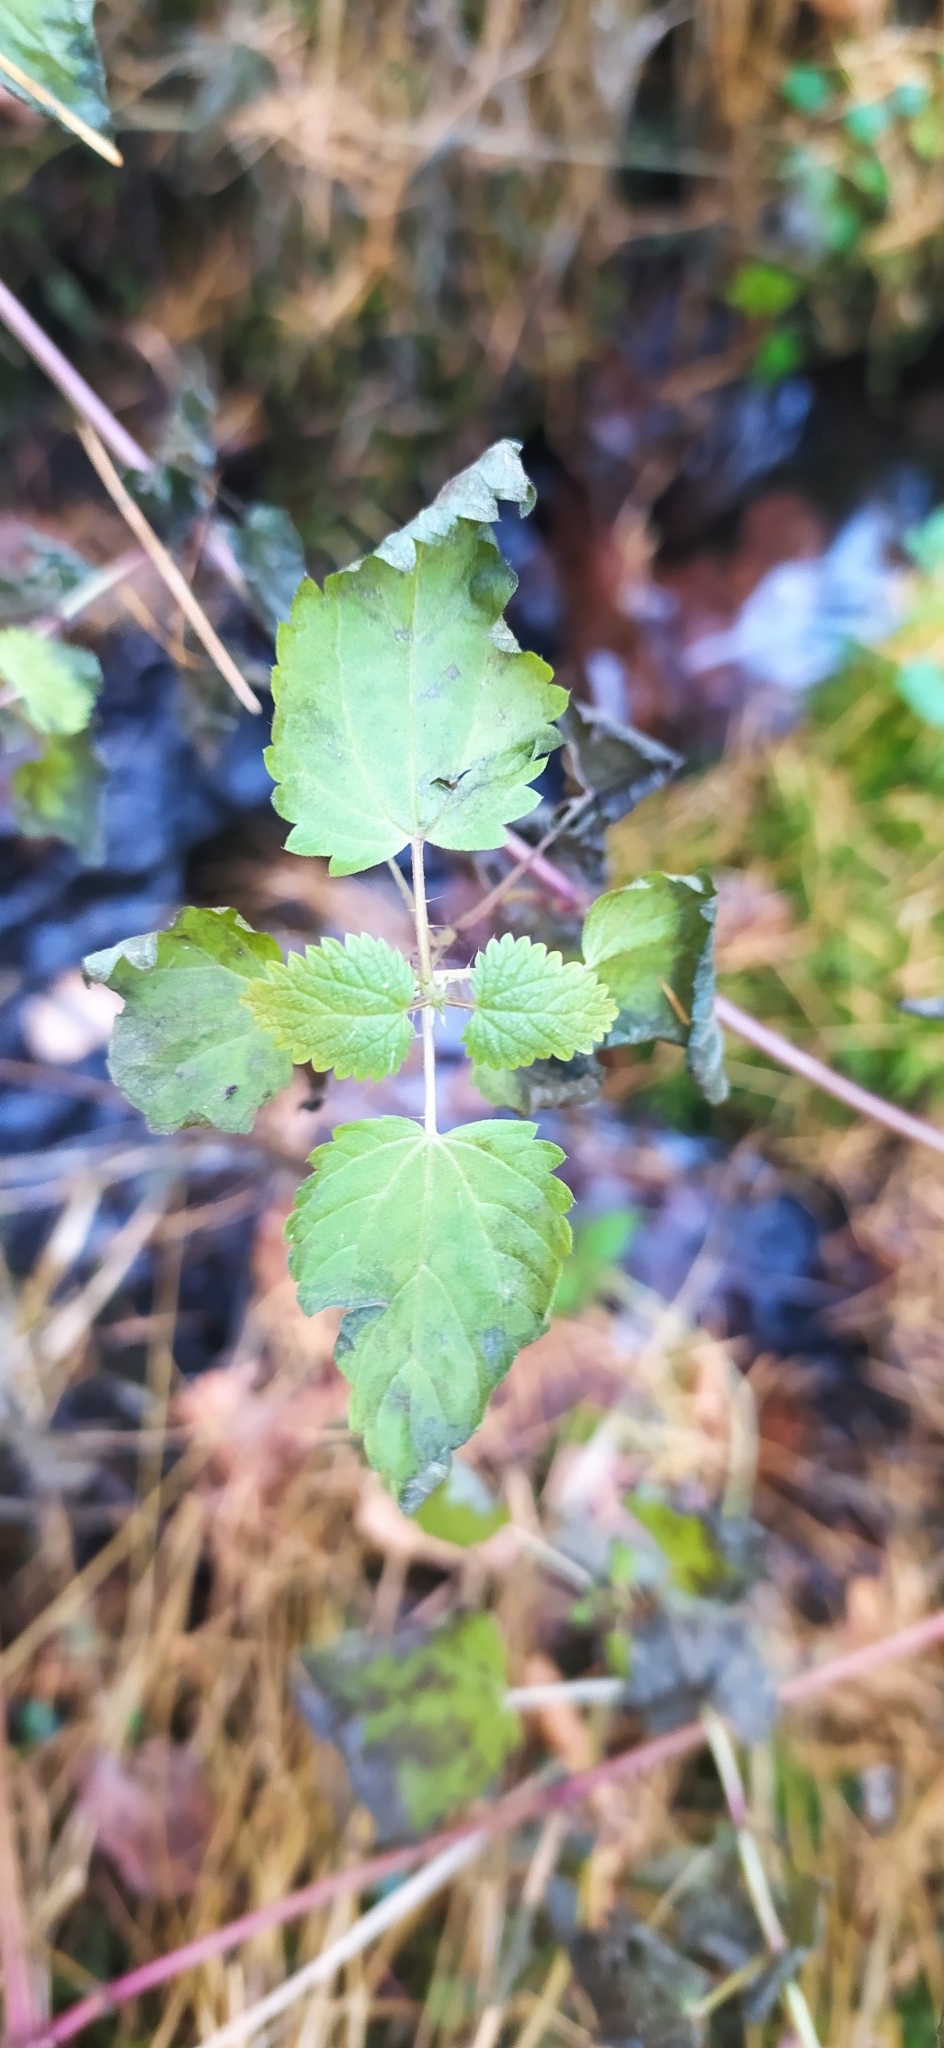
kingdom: Plantae
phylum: Tracheophyta
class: Magnoliopsida
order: Rosales
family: Urticaceae
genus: Urtica
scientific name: Urtica dioica
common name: Common nettle
